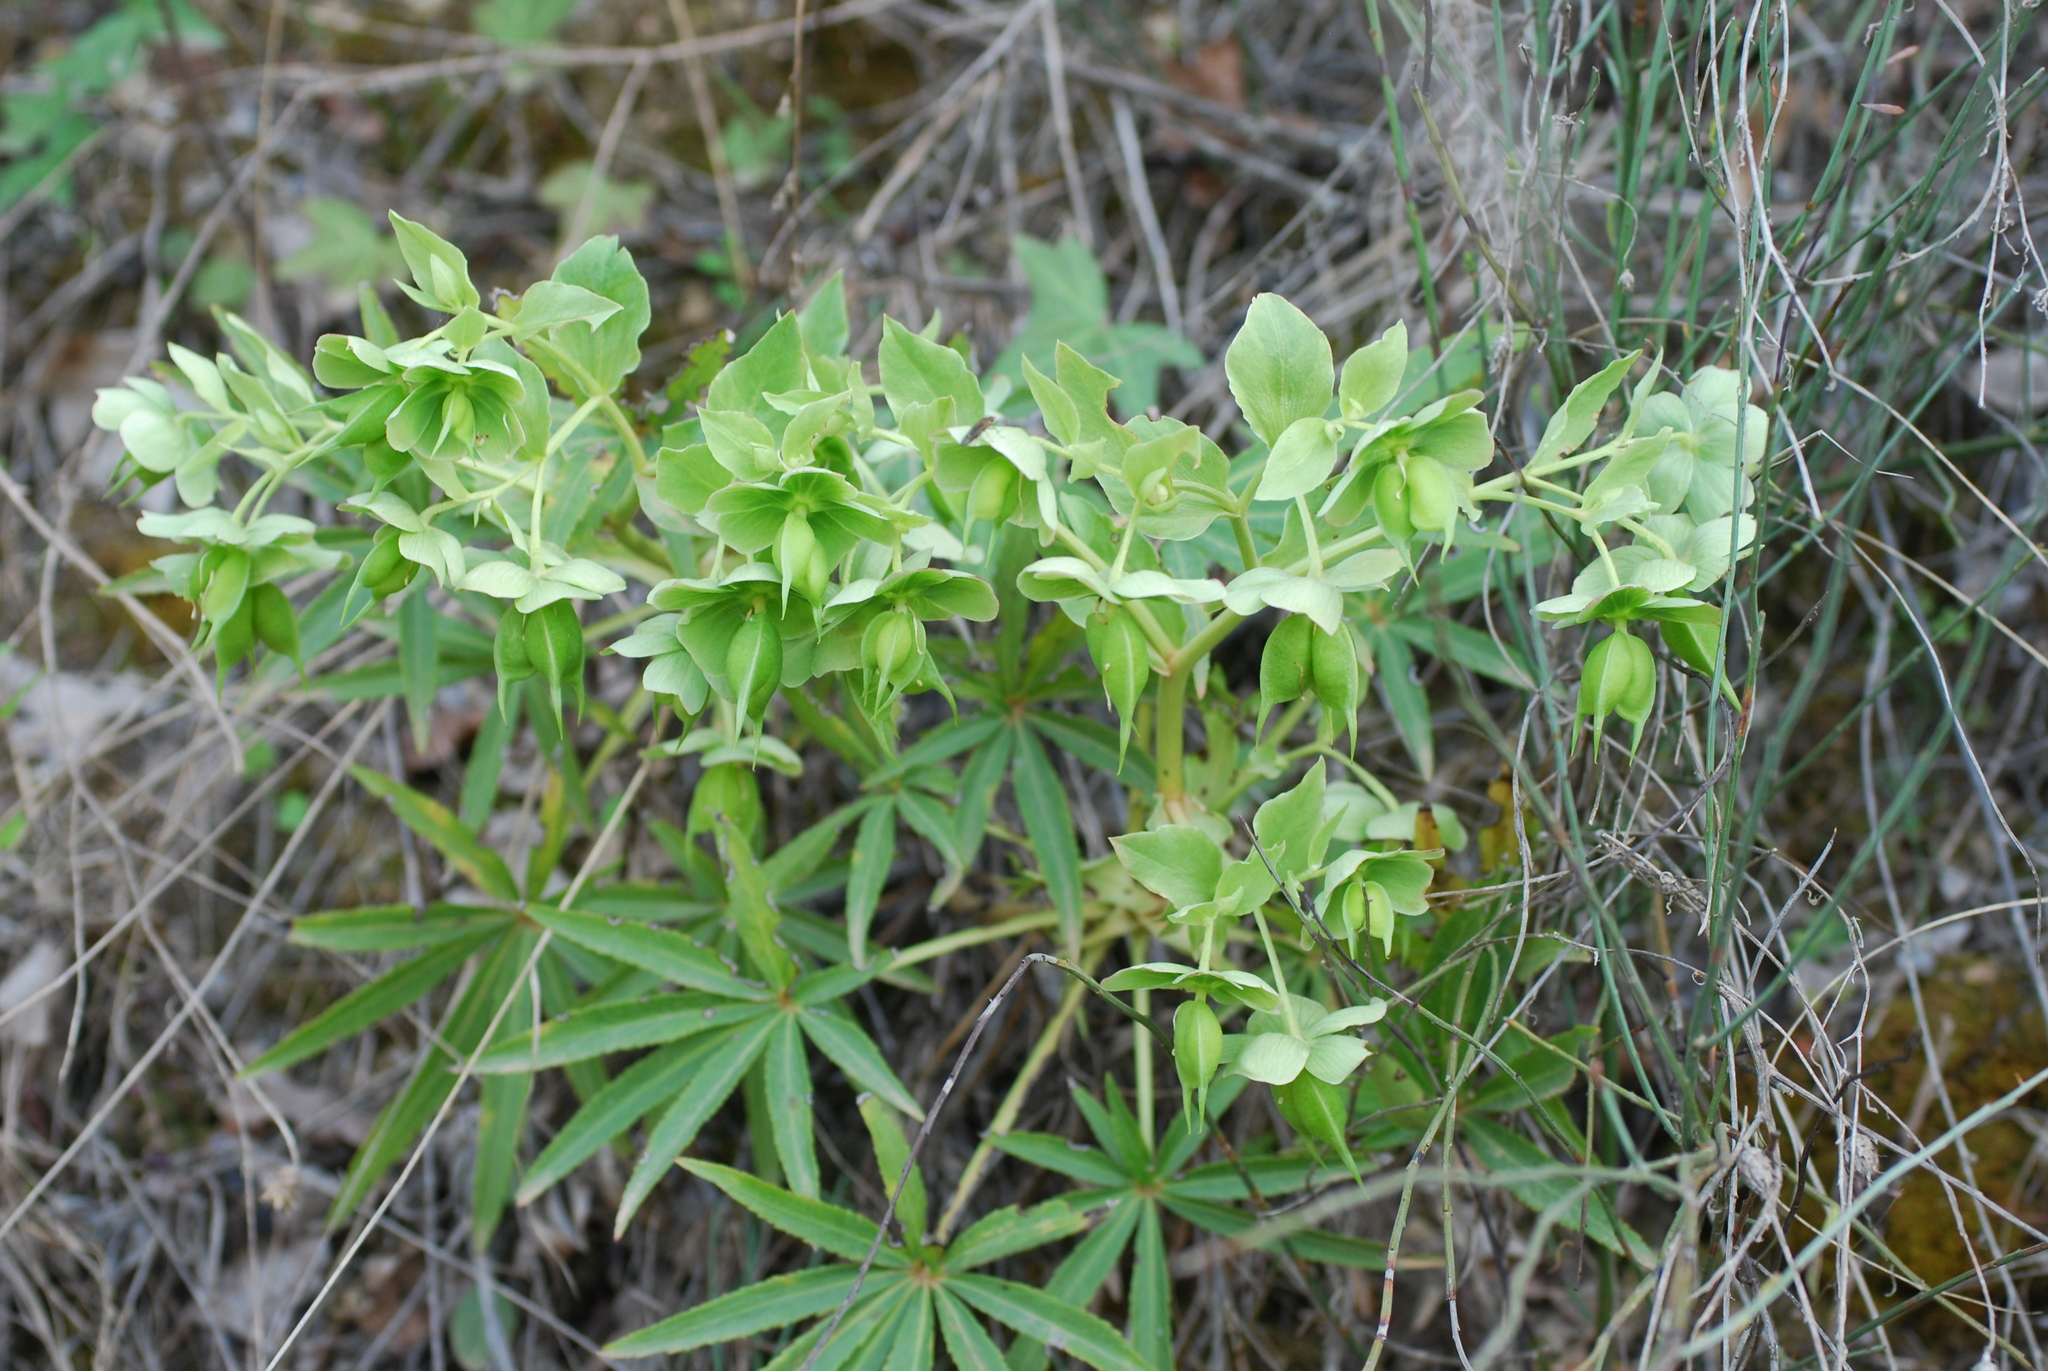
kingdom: Plantae
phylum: Tracheophyta
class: Magnoliopsida
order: Ranunculales
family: Ranunculaceae
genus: Helleborus
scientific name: Helleborus foetidus
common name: Stinking hellebore
